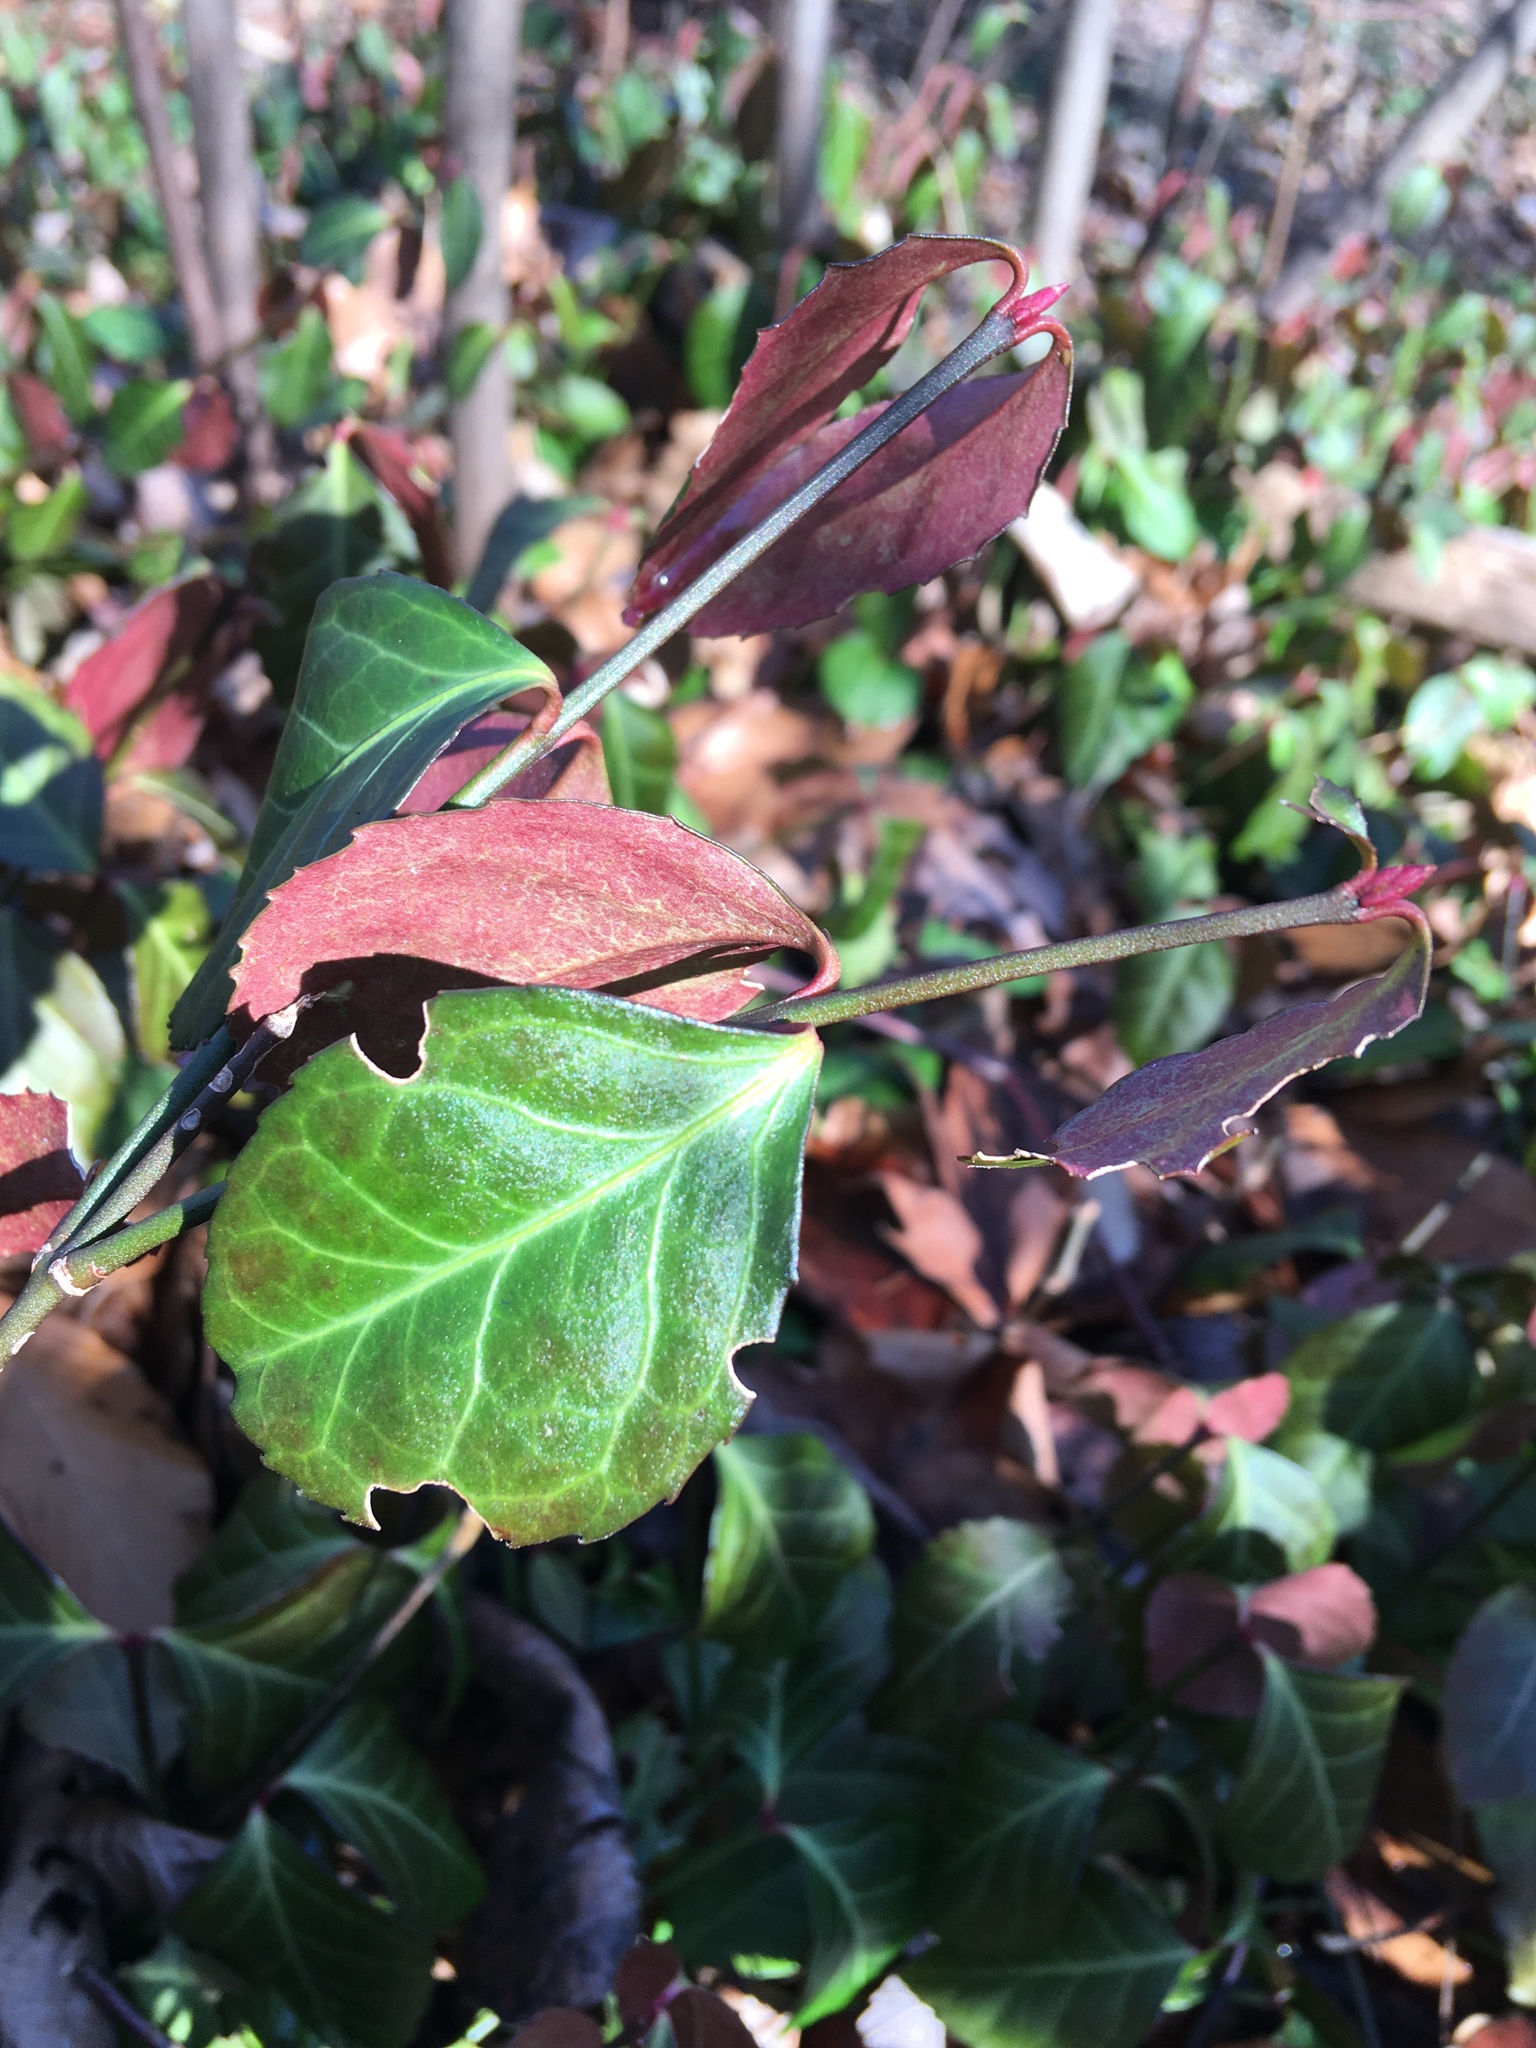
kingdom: Plantae
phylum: Tracheophyta
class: Magnoliopsida
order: Celastrales
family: Celastraceae
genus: Euonymus
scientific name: Euonymus fortunei
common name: Climbing euonymus
